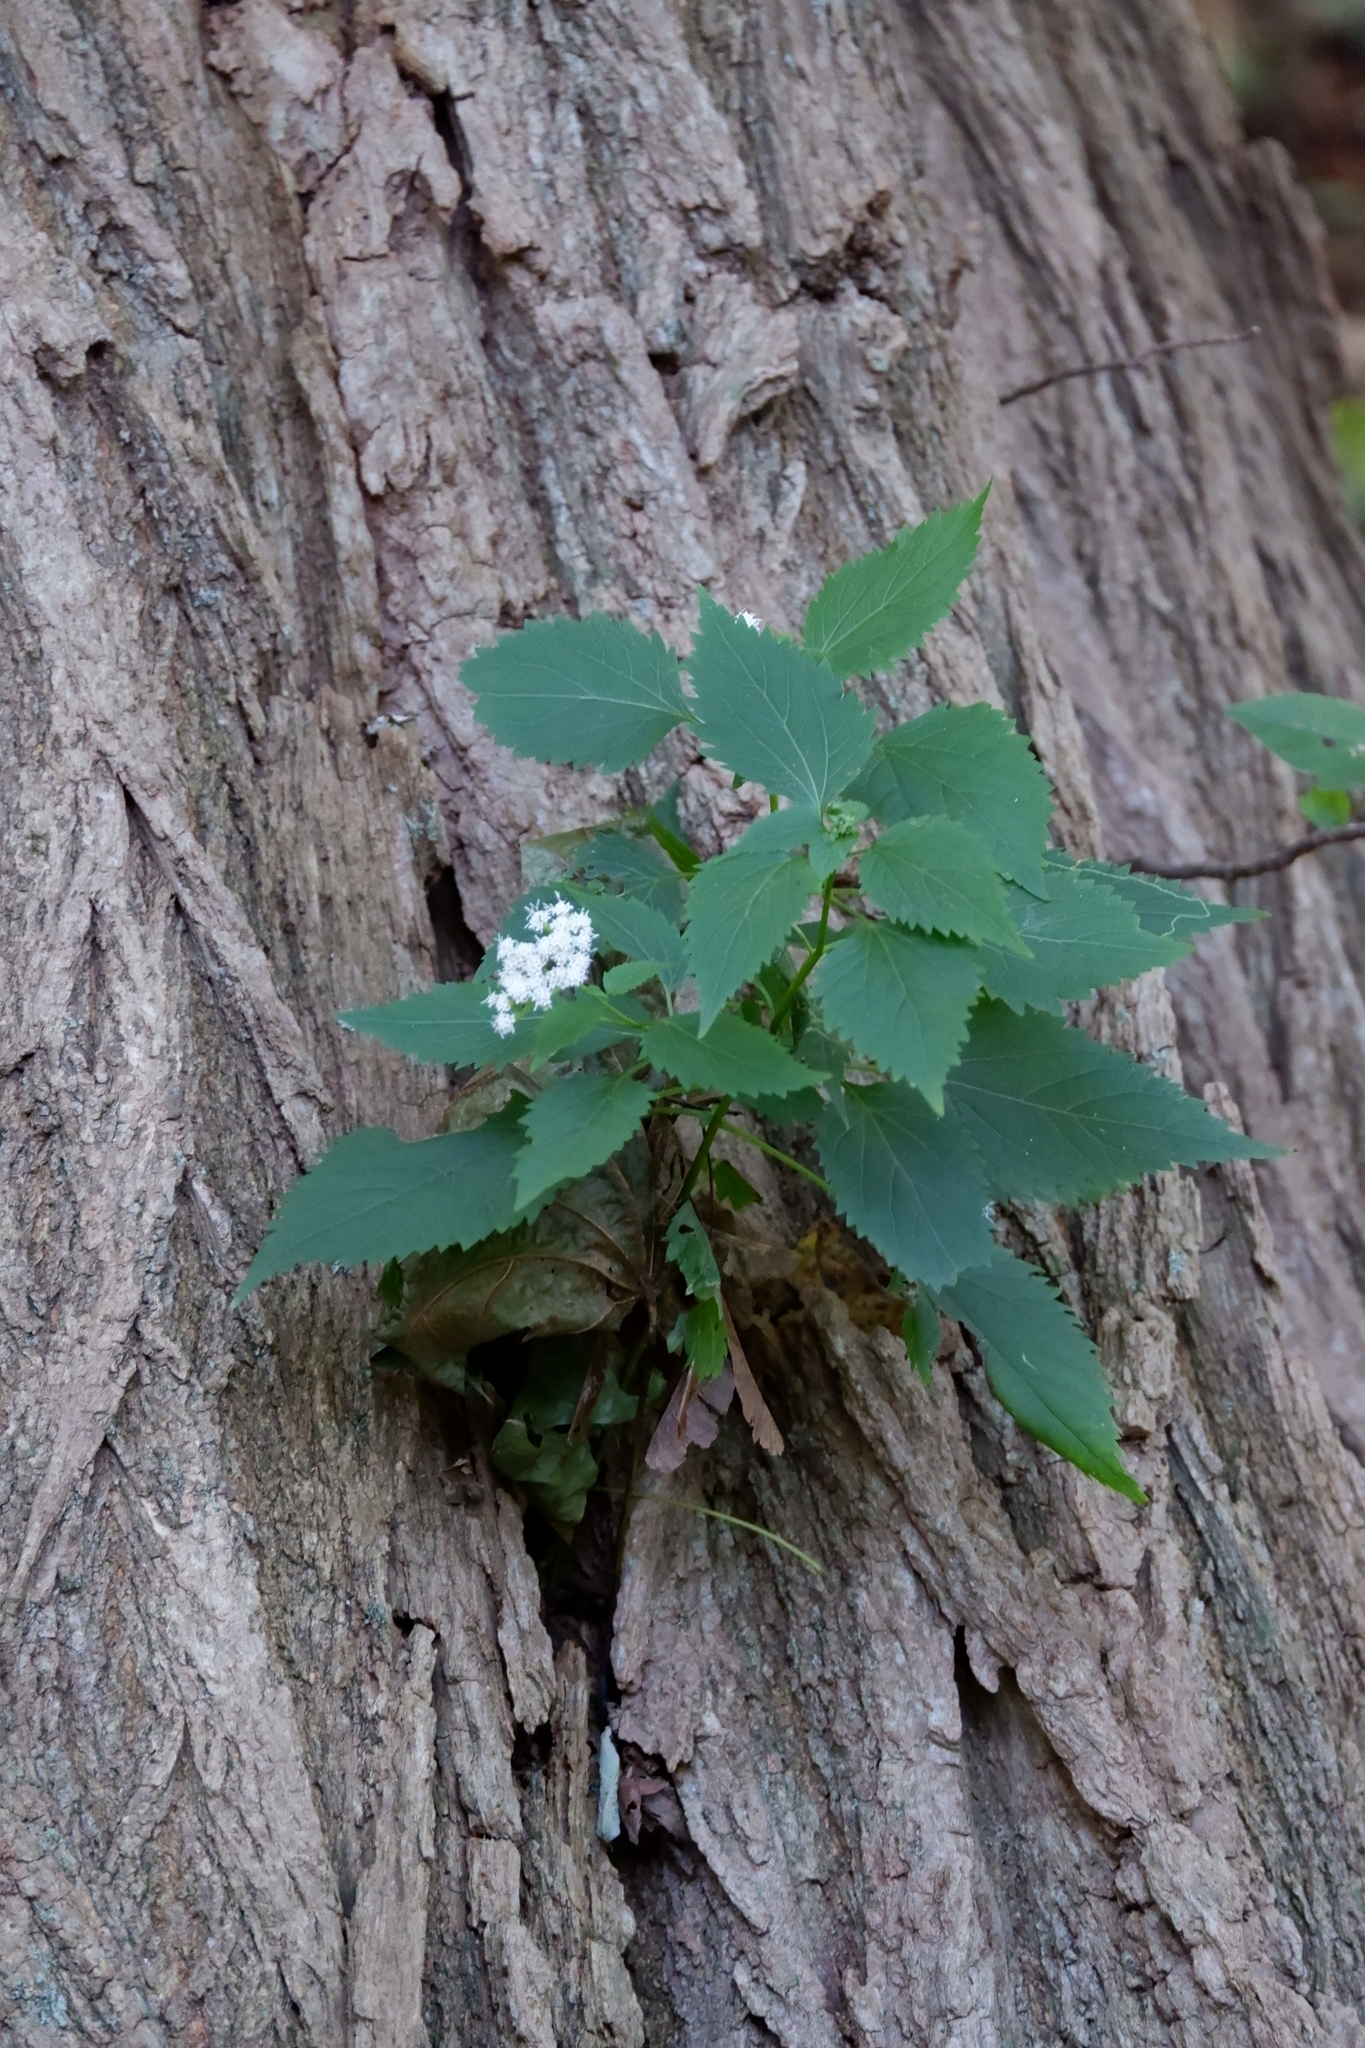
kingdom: Plantae
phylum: Tracheophyta
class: Magnoliopsida
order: Asterales
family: Asteraceae
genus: Ageratina
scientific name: Ageratina altissima
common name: White snakeroot
